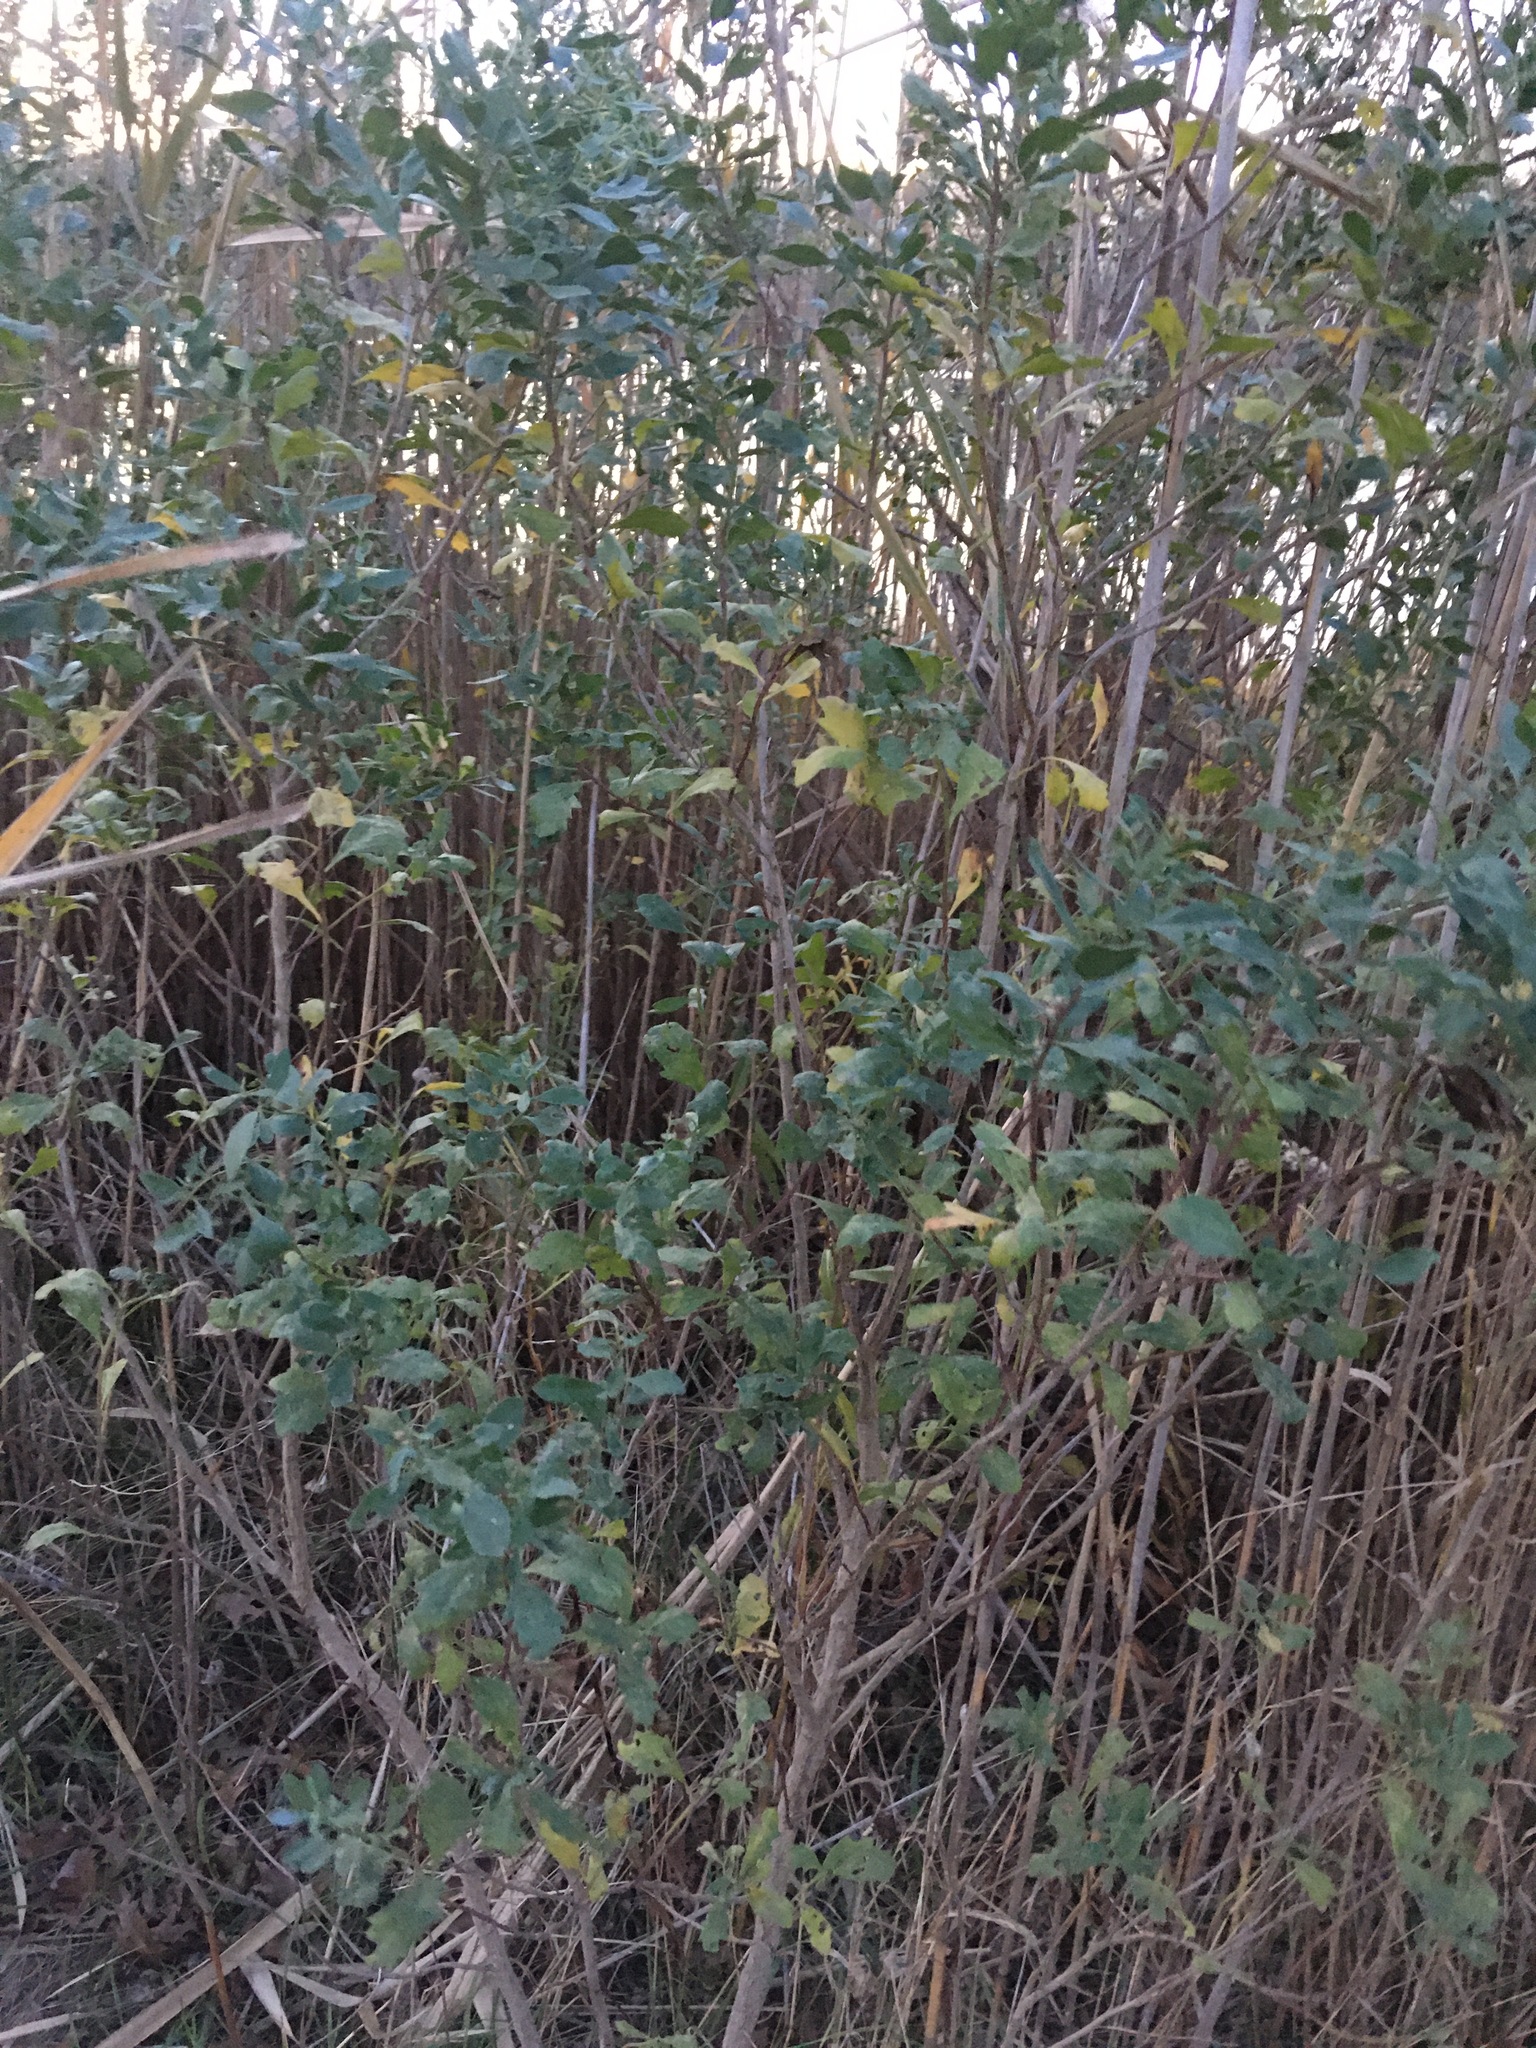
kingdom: Plantae
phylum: Tracheophyta
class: Magnoliopsida
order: Asterales
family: Asteraceae
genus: Baccharis
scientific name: Baccharis halimifolia
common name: Eastern baccharis
